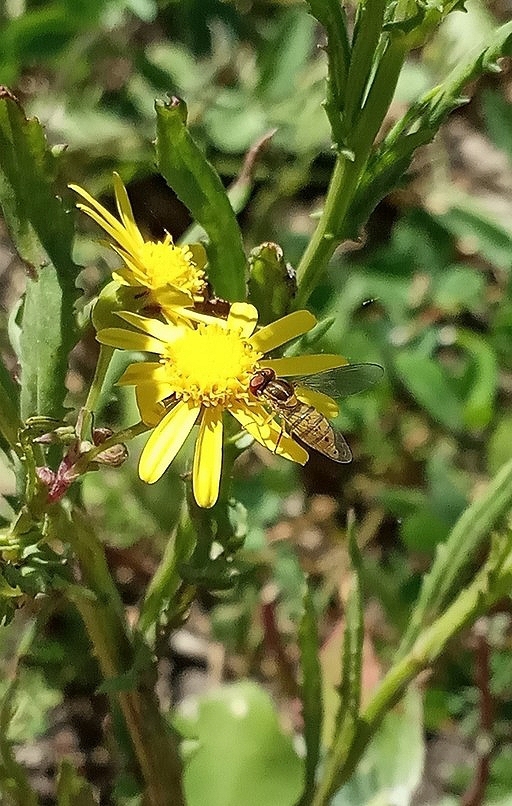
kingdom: Animalia
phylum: Arthropoda
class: Insecta
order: Diptera
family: Syrphidae
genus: Toxomerus
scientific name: Toxomerus
